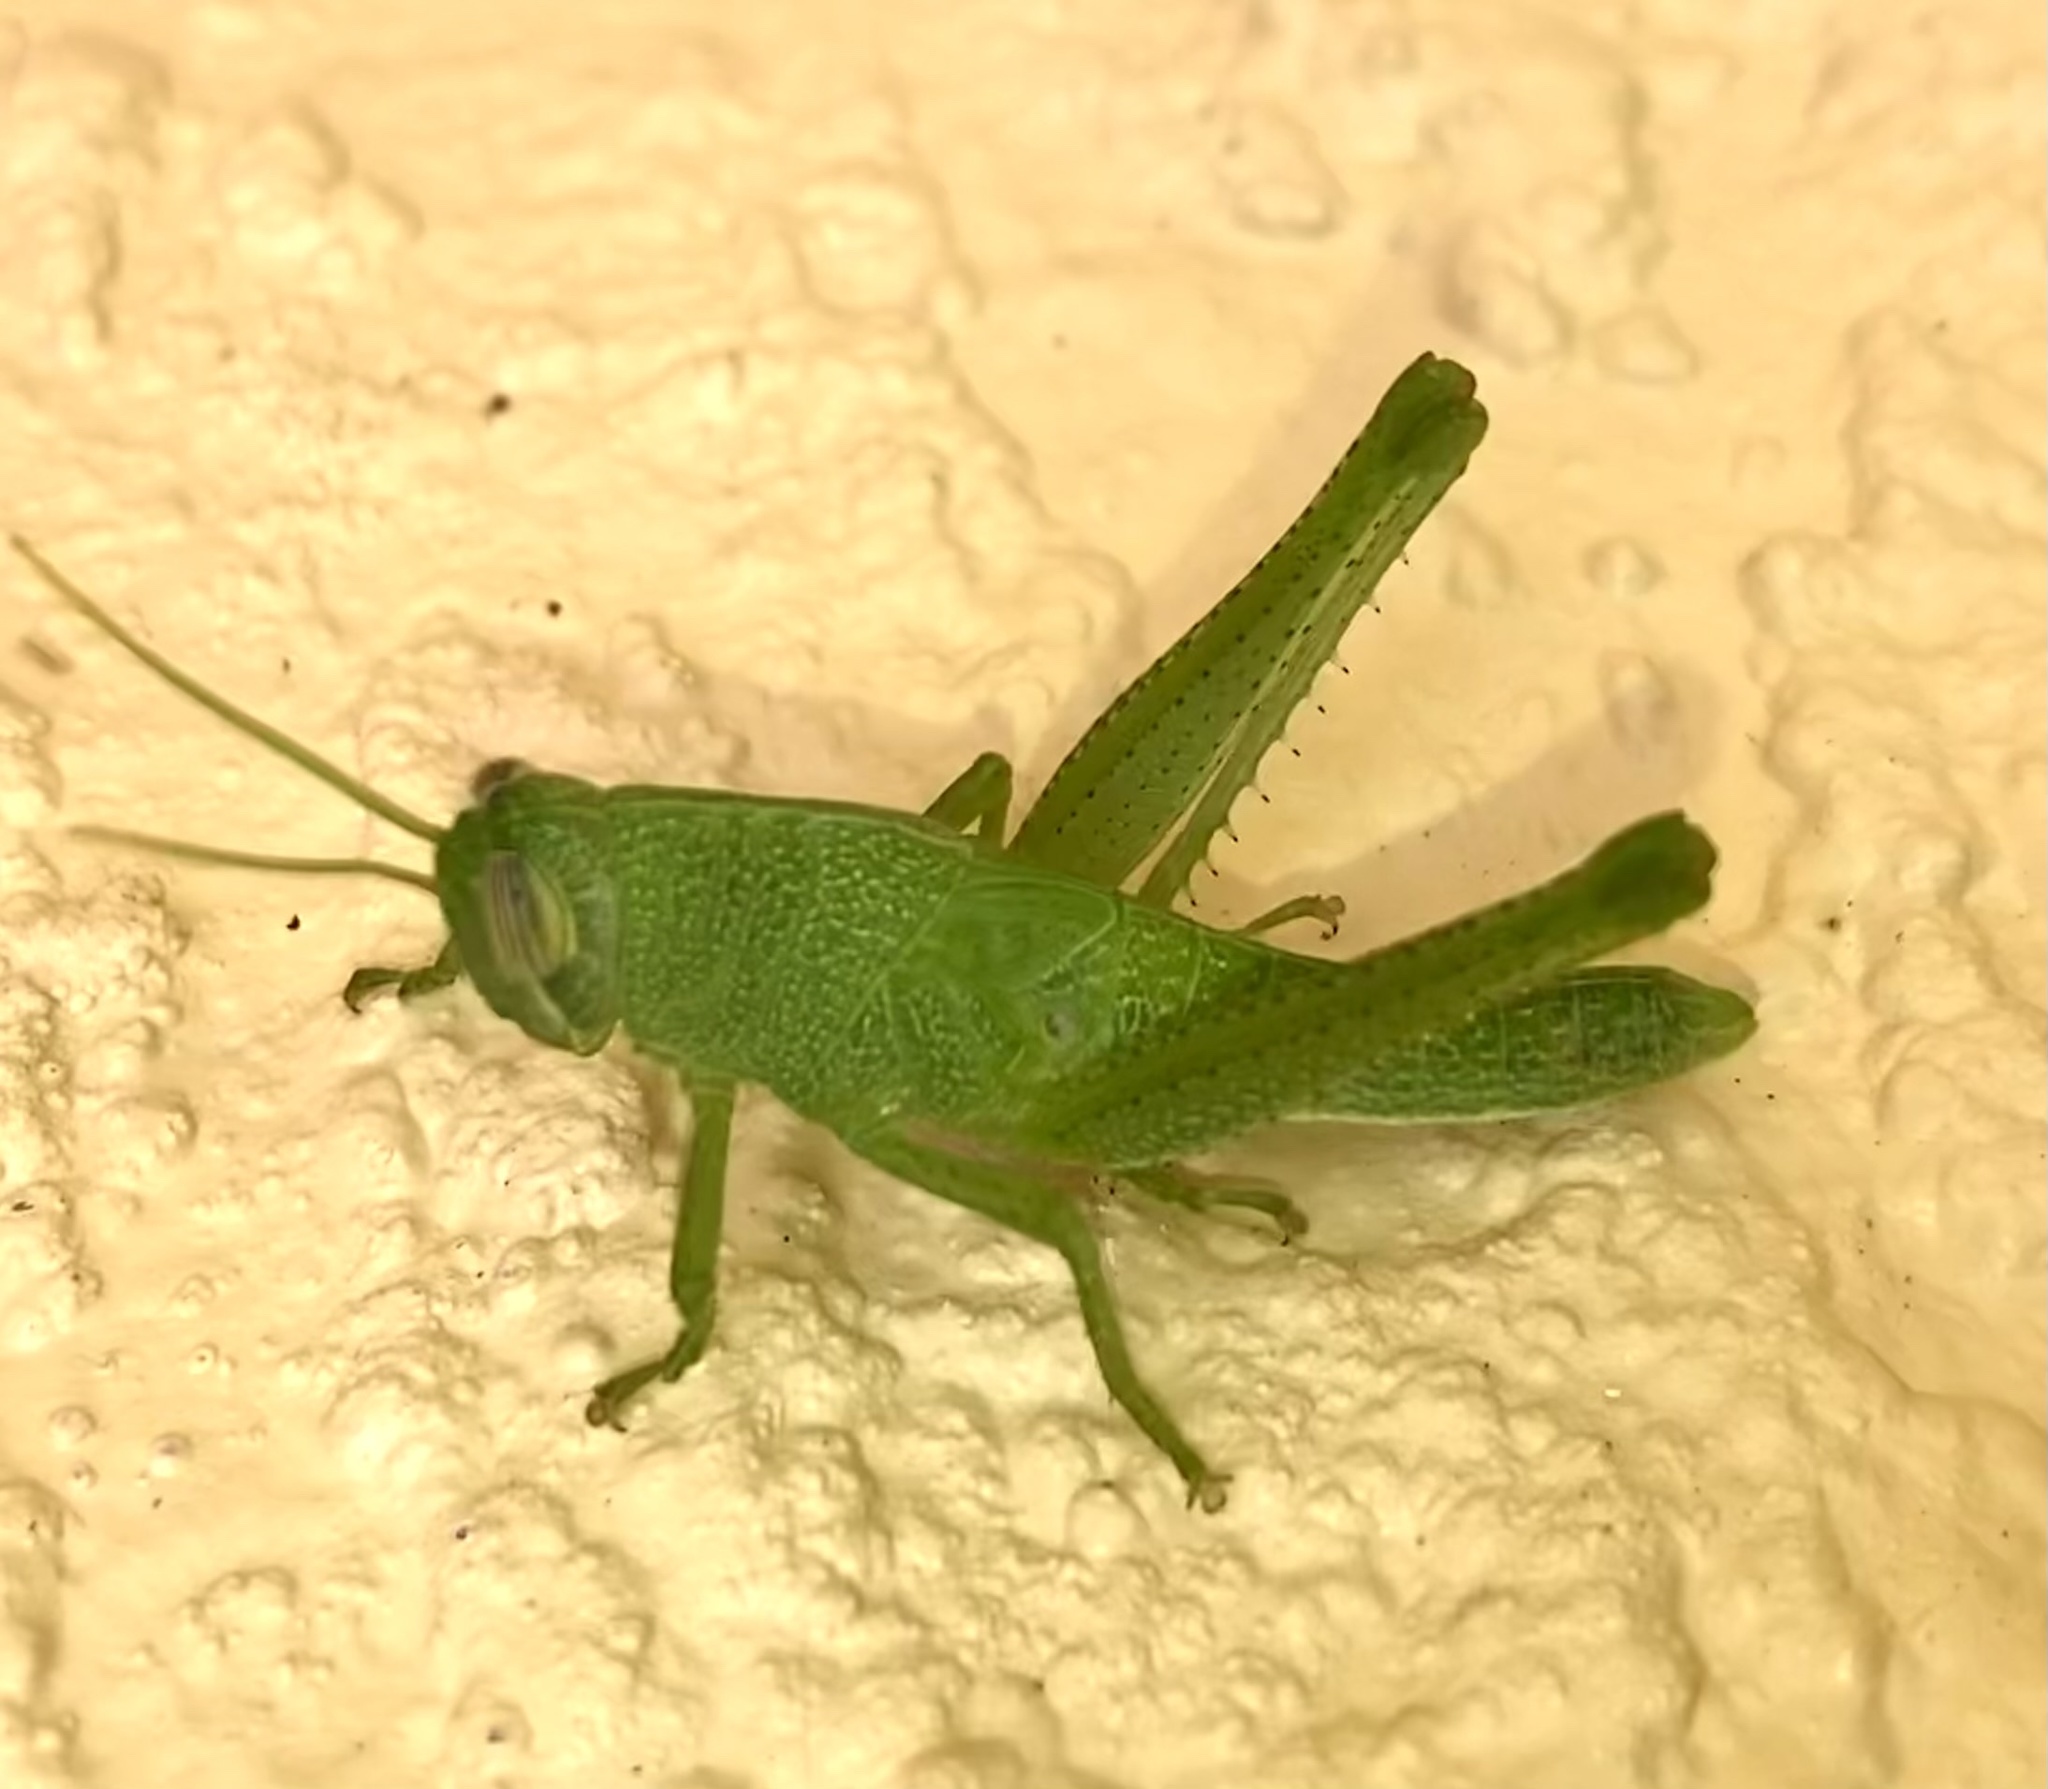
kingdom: Animalia
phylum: Arthropoda
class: Insecta
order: Orthoptera
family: Acrididae
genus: Schistocerca
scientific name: Schistocerca damnifica
